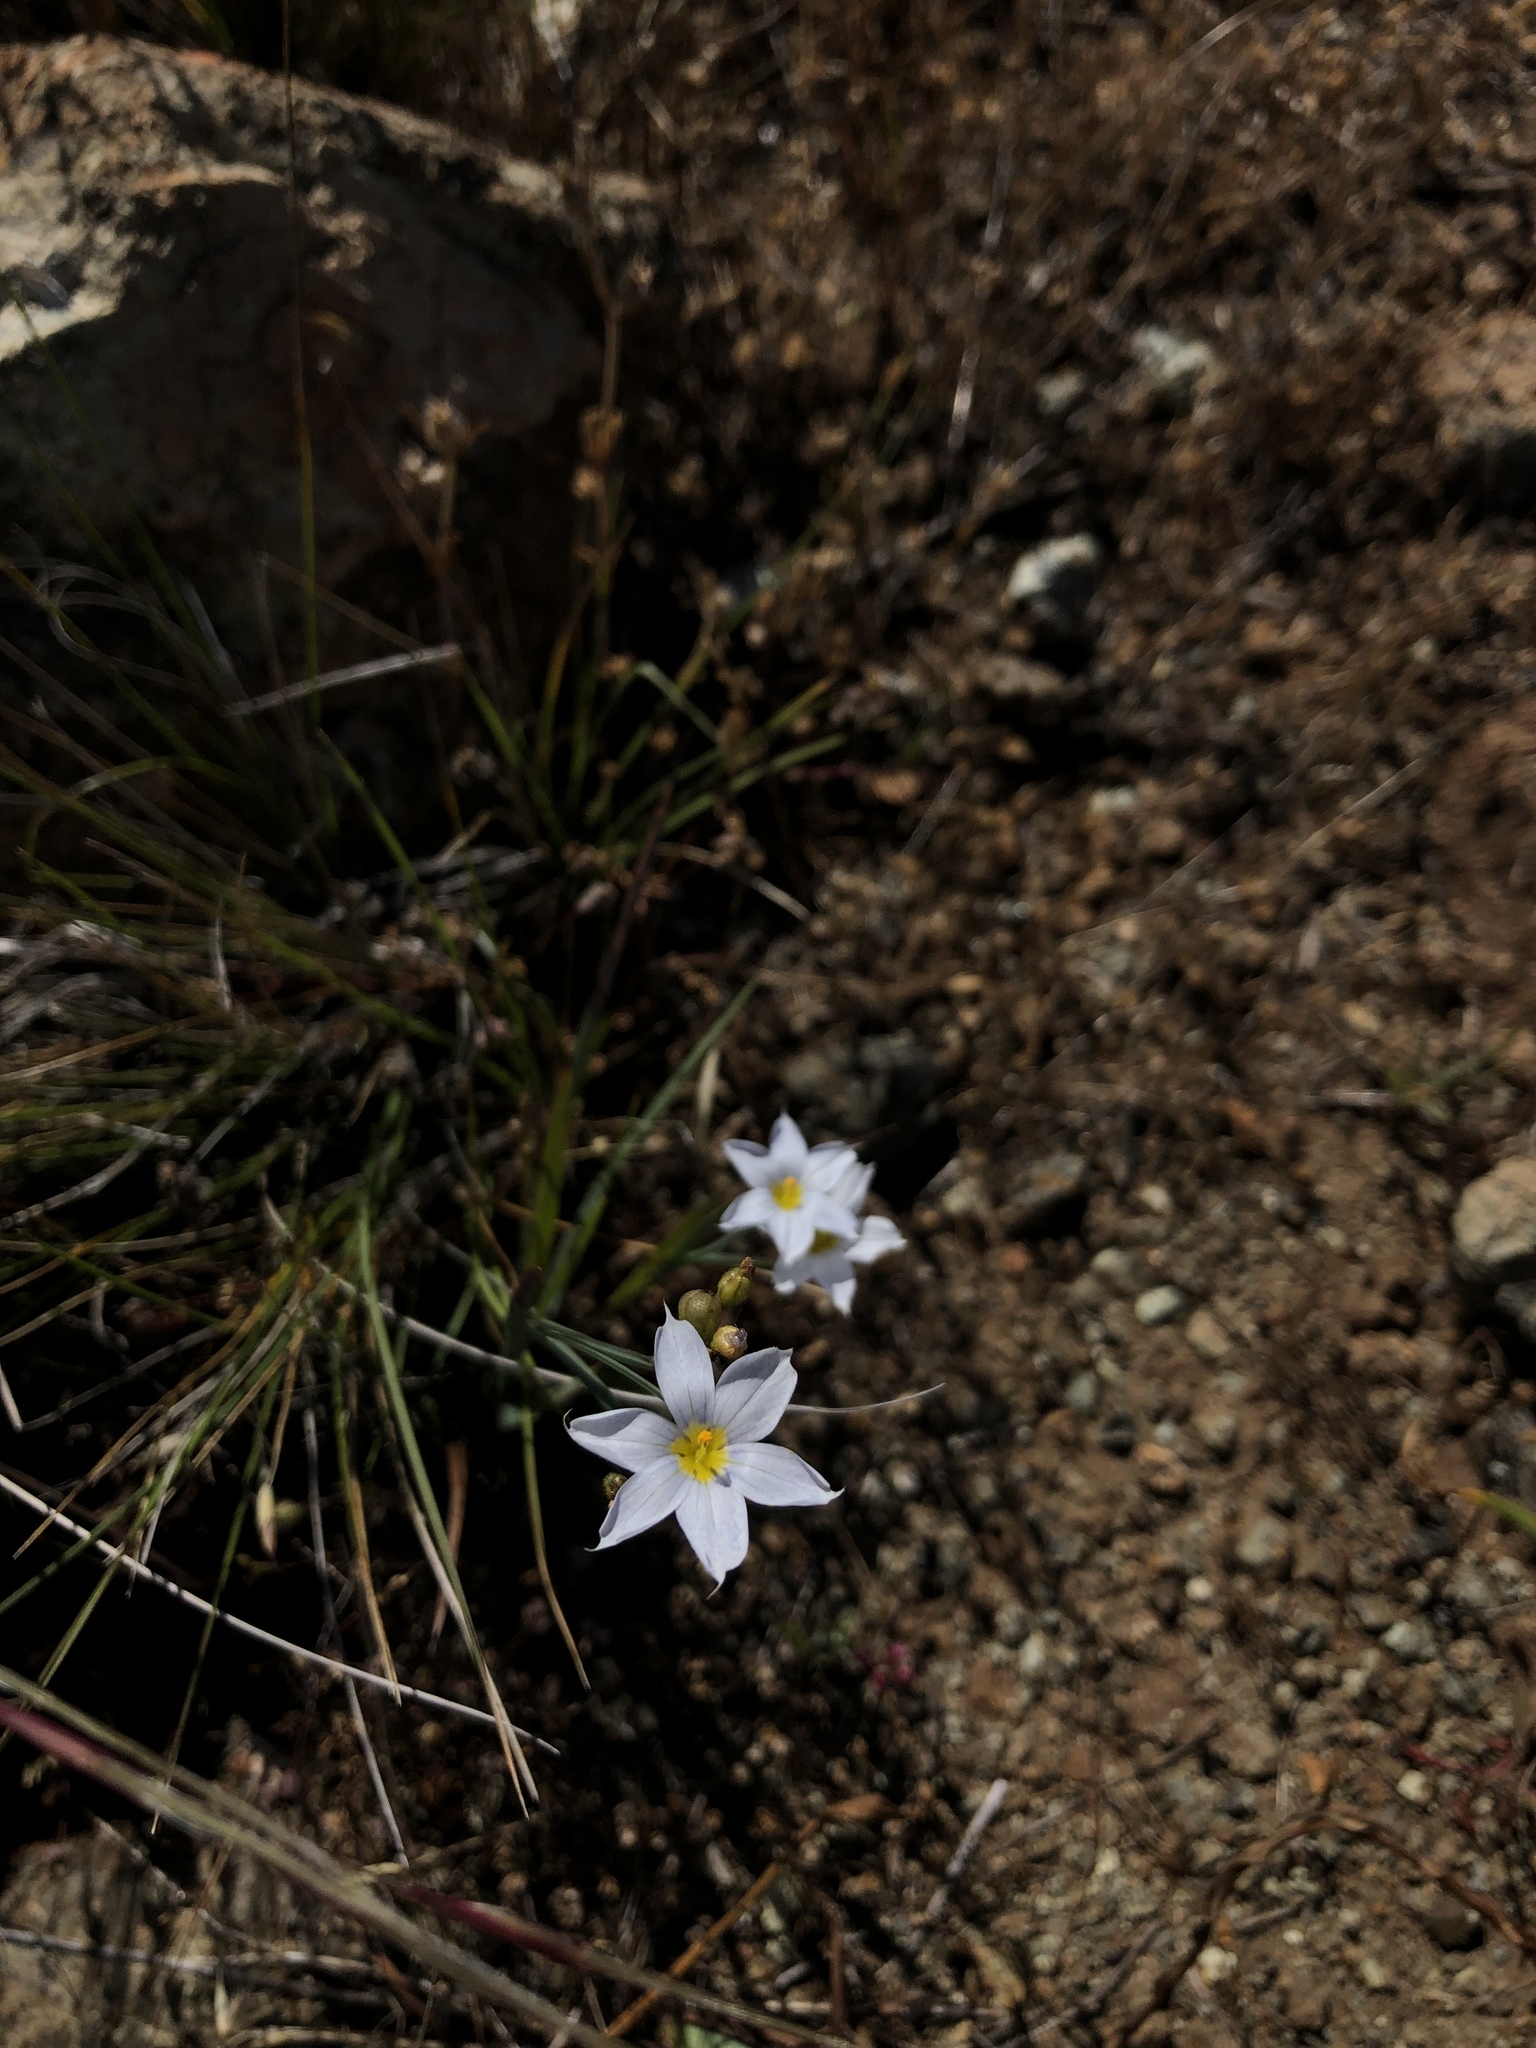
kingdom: Plantae
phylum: Tracheophyta
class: Liliopsida
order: Asparagales
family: Iridaceae
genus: Sisyrinchium
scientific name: Sisyrinchium bellum
